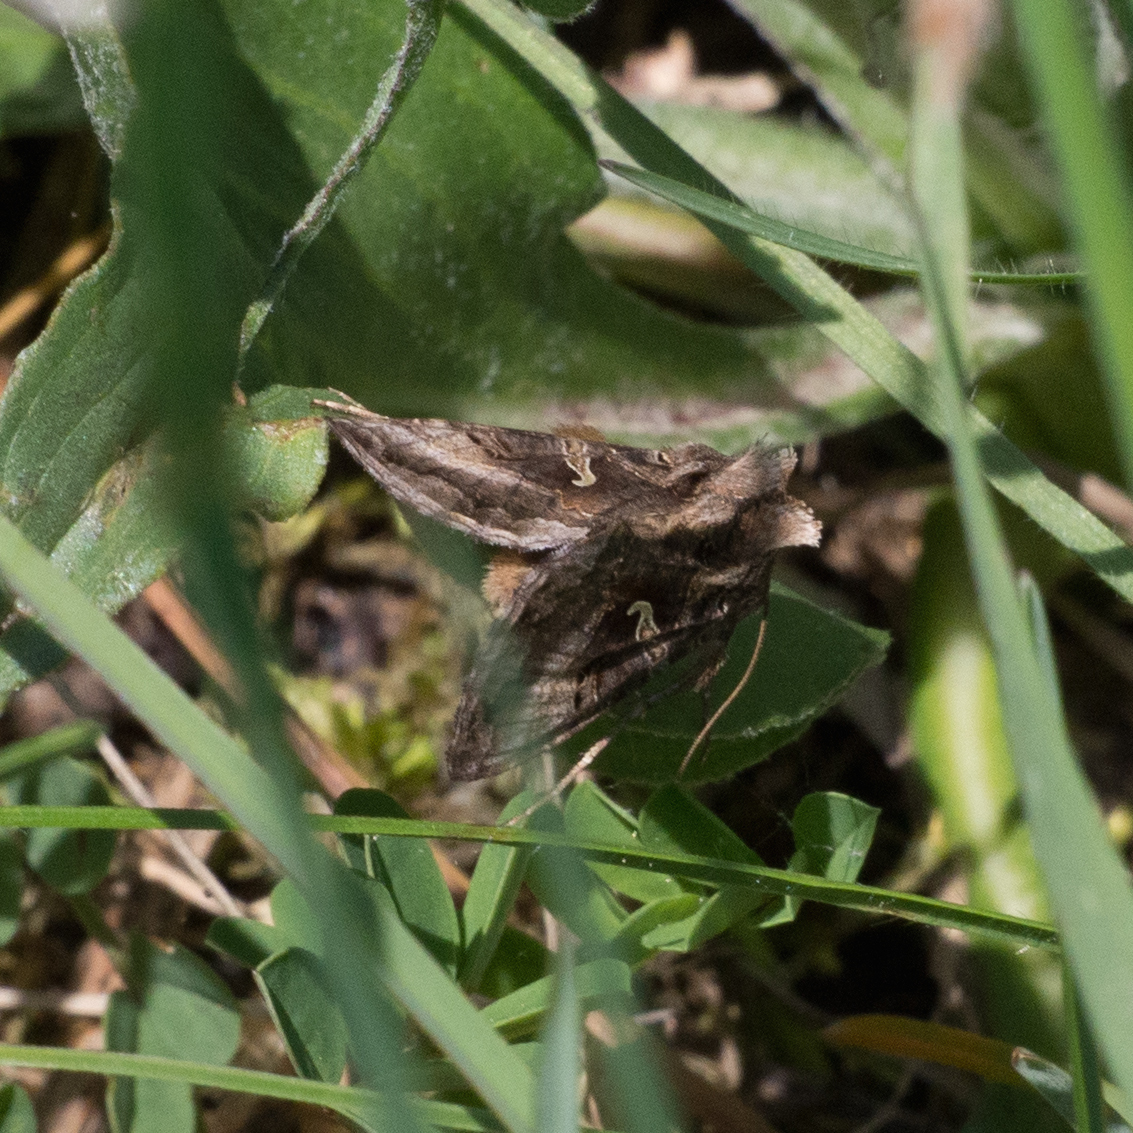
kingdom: Animalia
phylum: Arthropoda
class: Insecta
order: Lepidoptera
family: Noctuidae
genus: Autographa
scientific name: Autographa gamma
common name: Silver y
